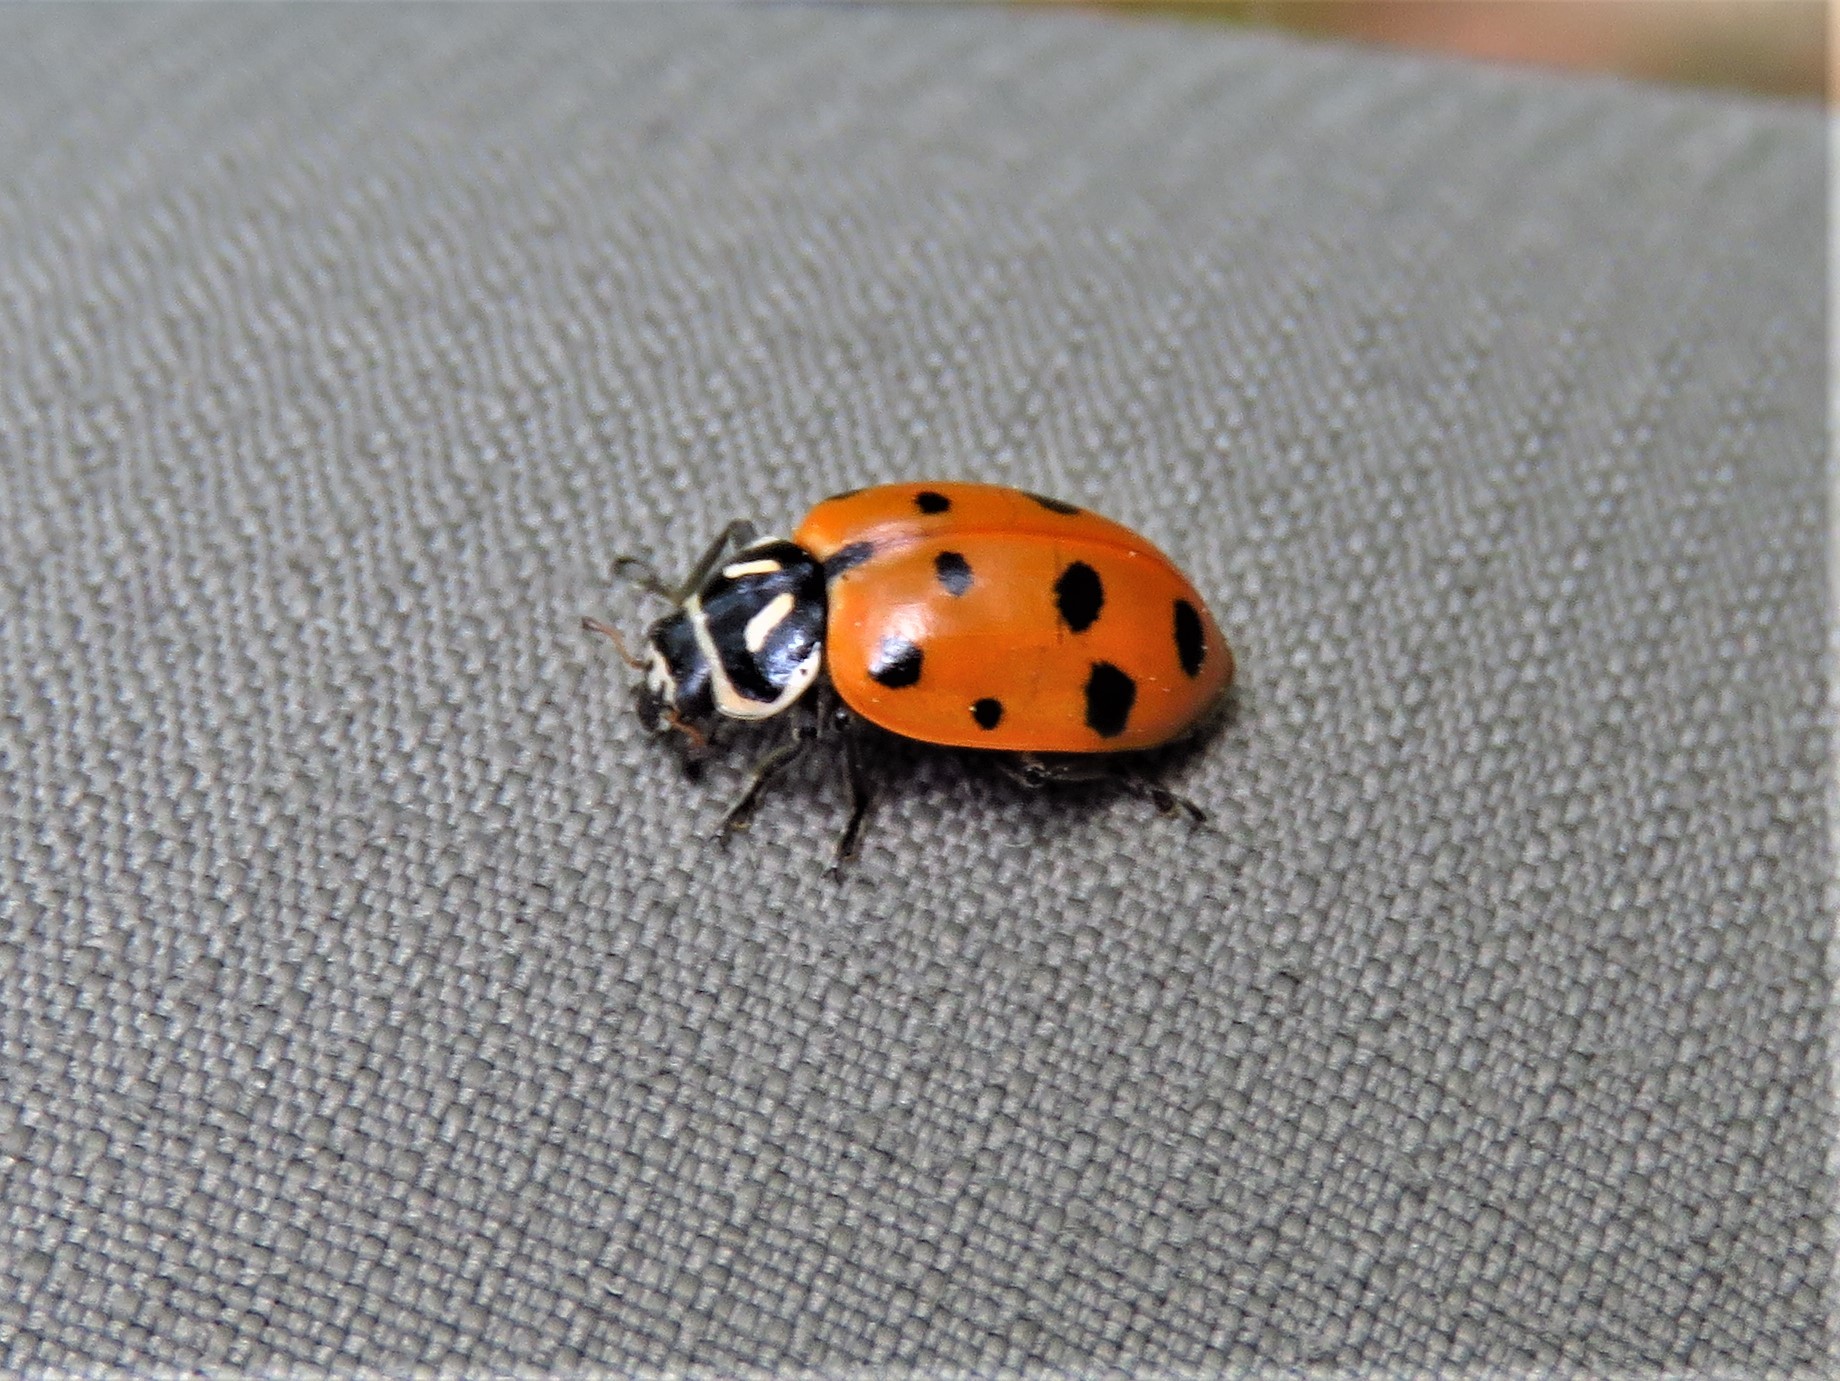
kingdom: Animalia
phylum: Arthropoda
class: Insecta
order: Coleoptera
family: Coccinellidae
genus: Hippodamia
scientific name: Hippodamia convergens
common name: Convergent lady beetle
